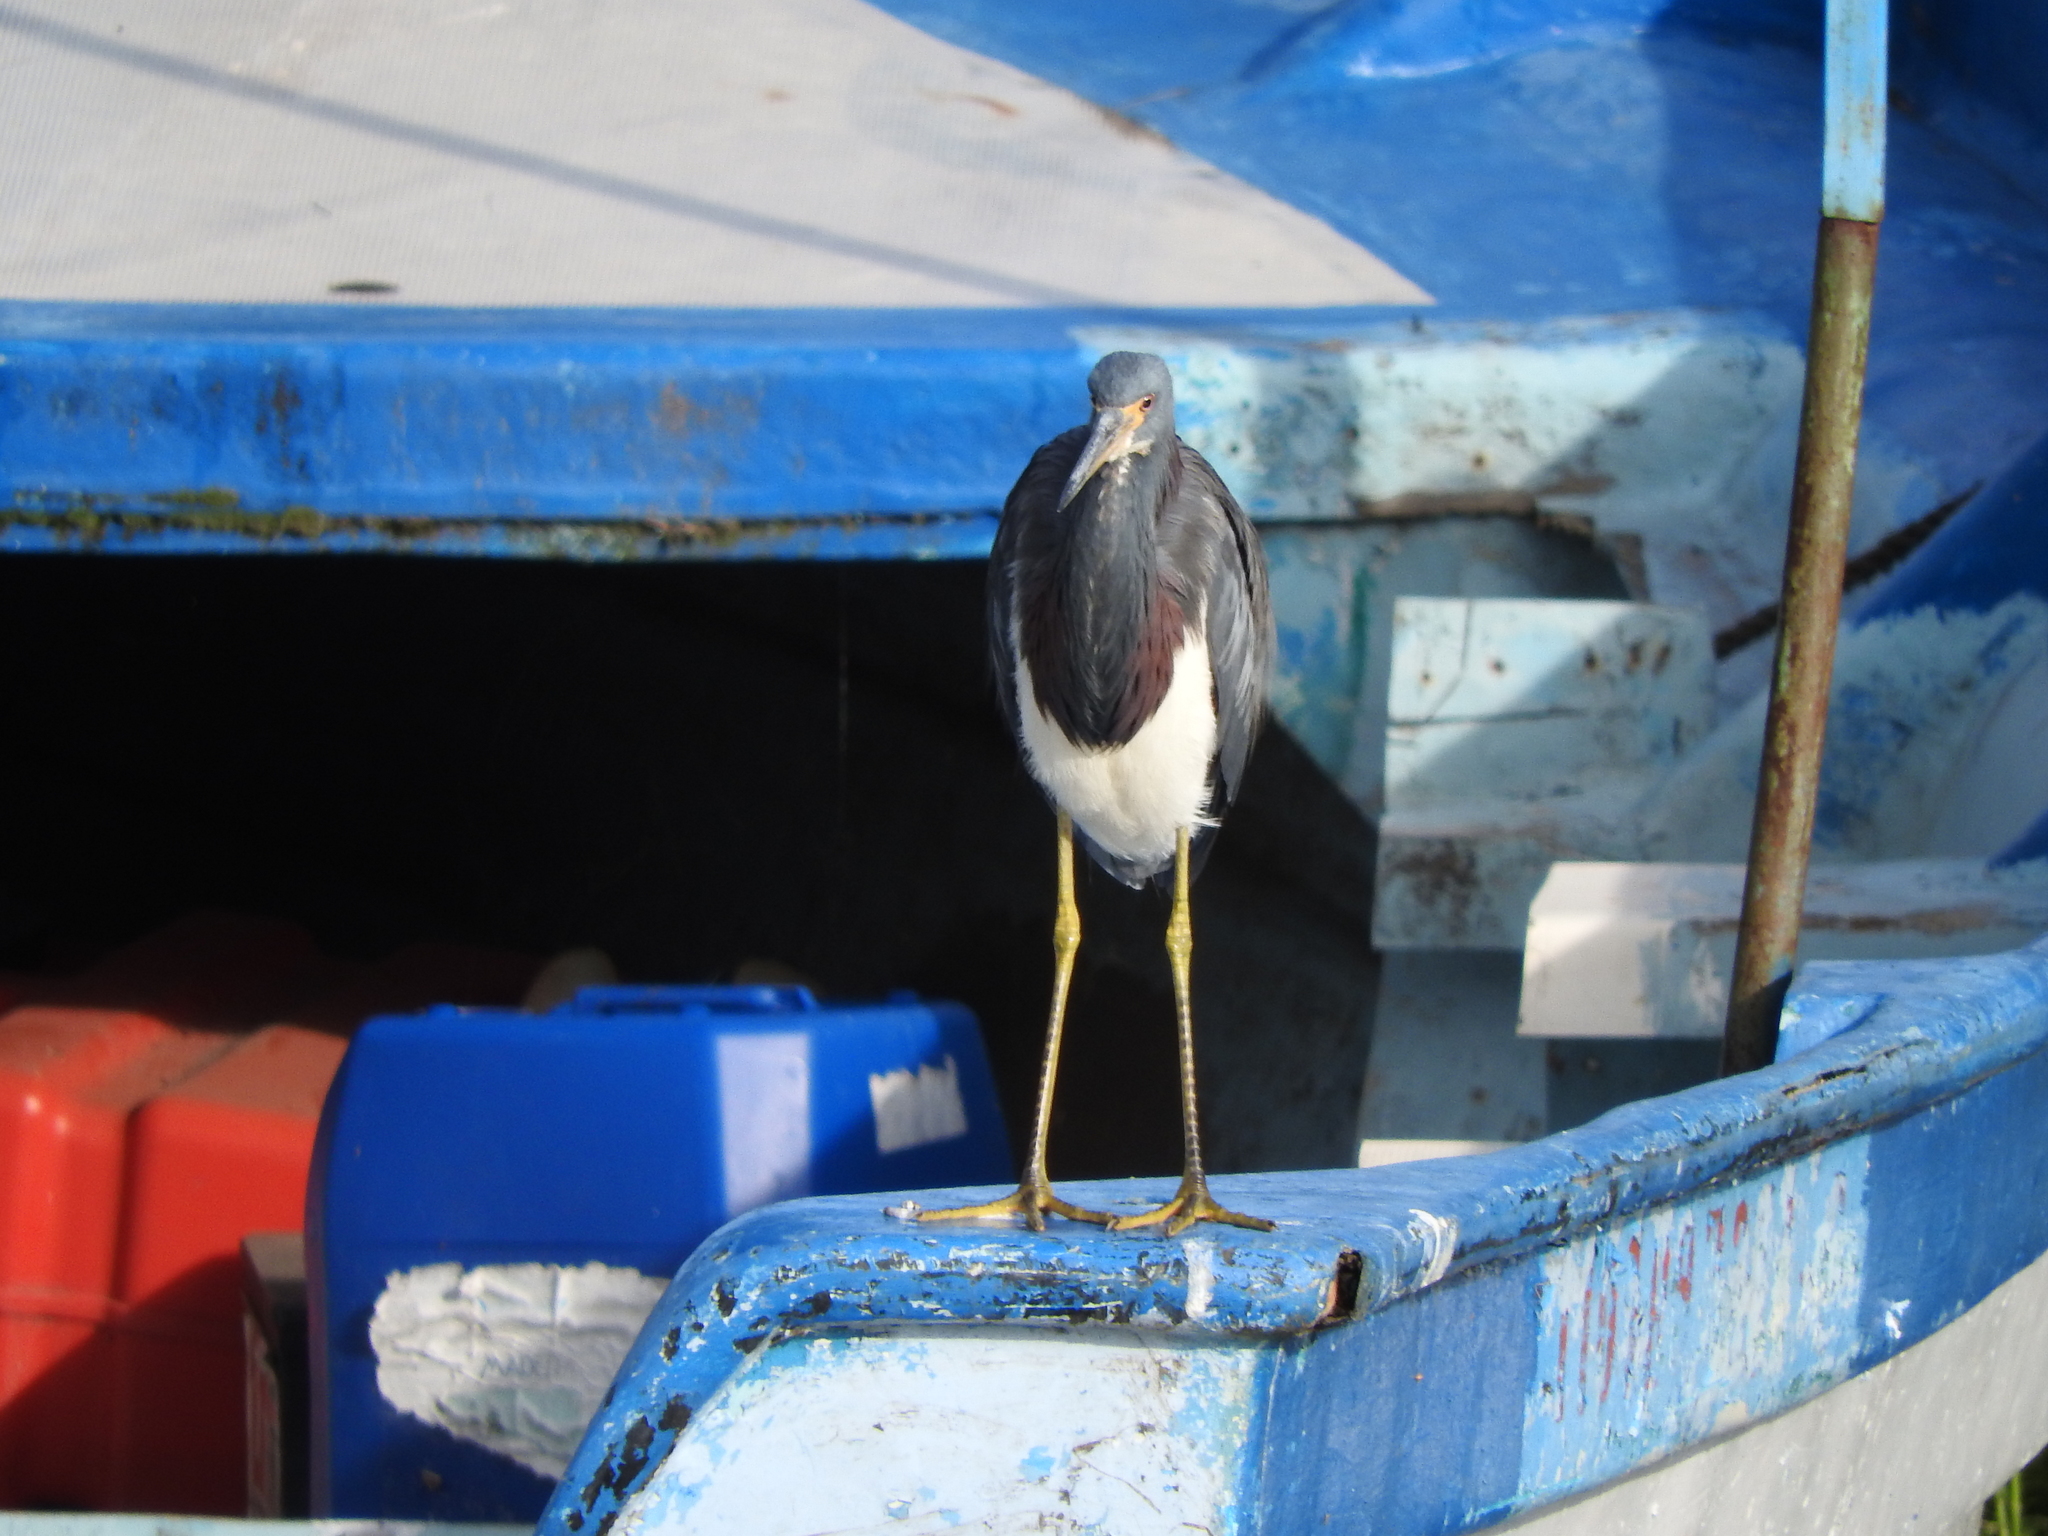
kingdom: Animalia
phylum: Chordata
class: Aves
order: Pelecaniformes
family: Ardeidae
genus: Egretta
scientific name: Egretta tricolor
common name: Tricolored heron
